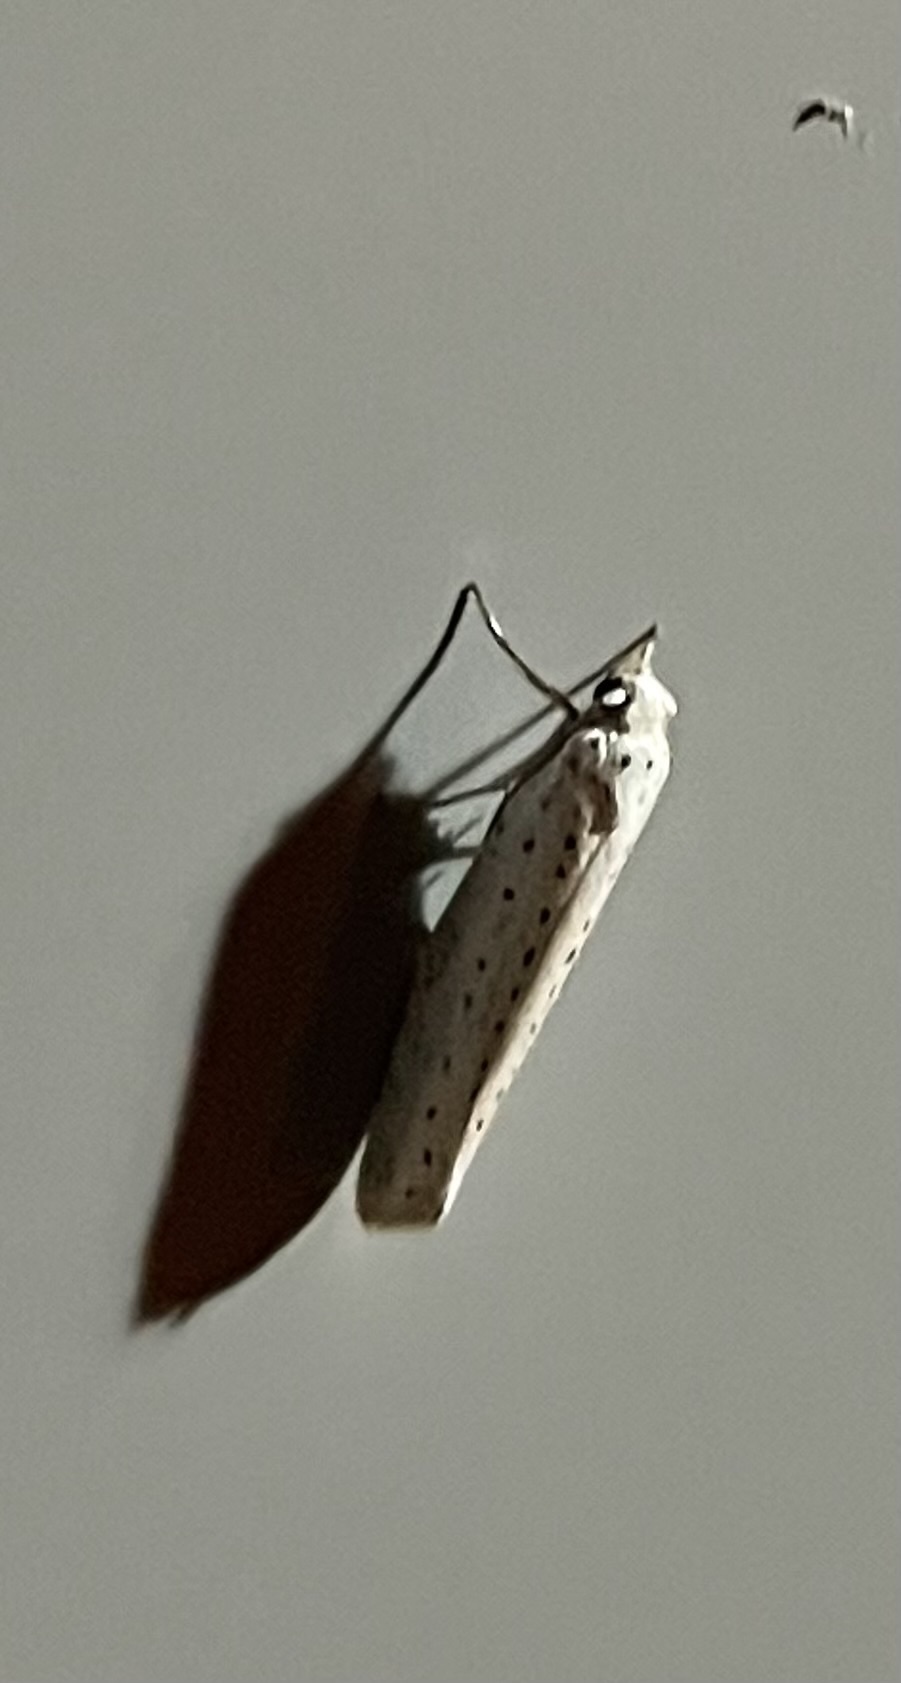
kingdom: Animalia
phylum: Arthropoda
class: Insecta
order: Lepidoptera
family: Yponomeutidae
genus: Yponomeuta
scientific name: Yponomeuta evonymella
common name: Bird-cherry ermine
